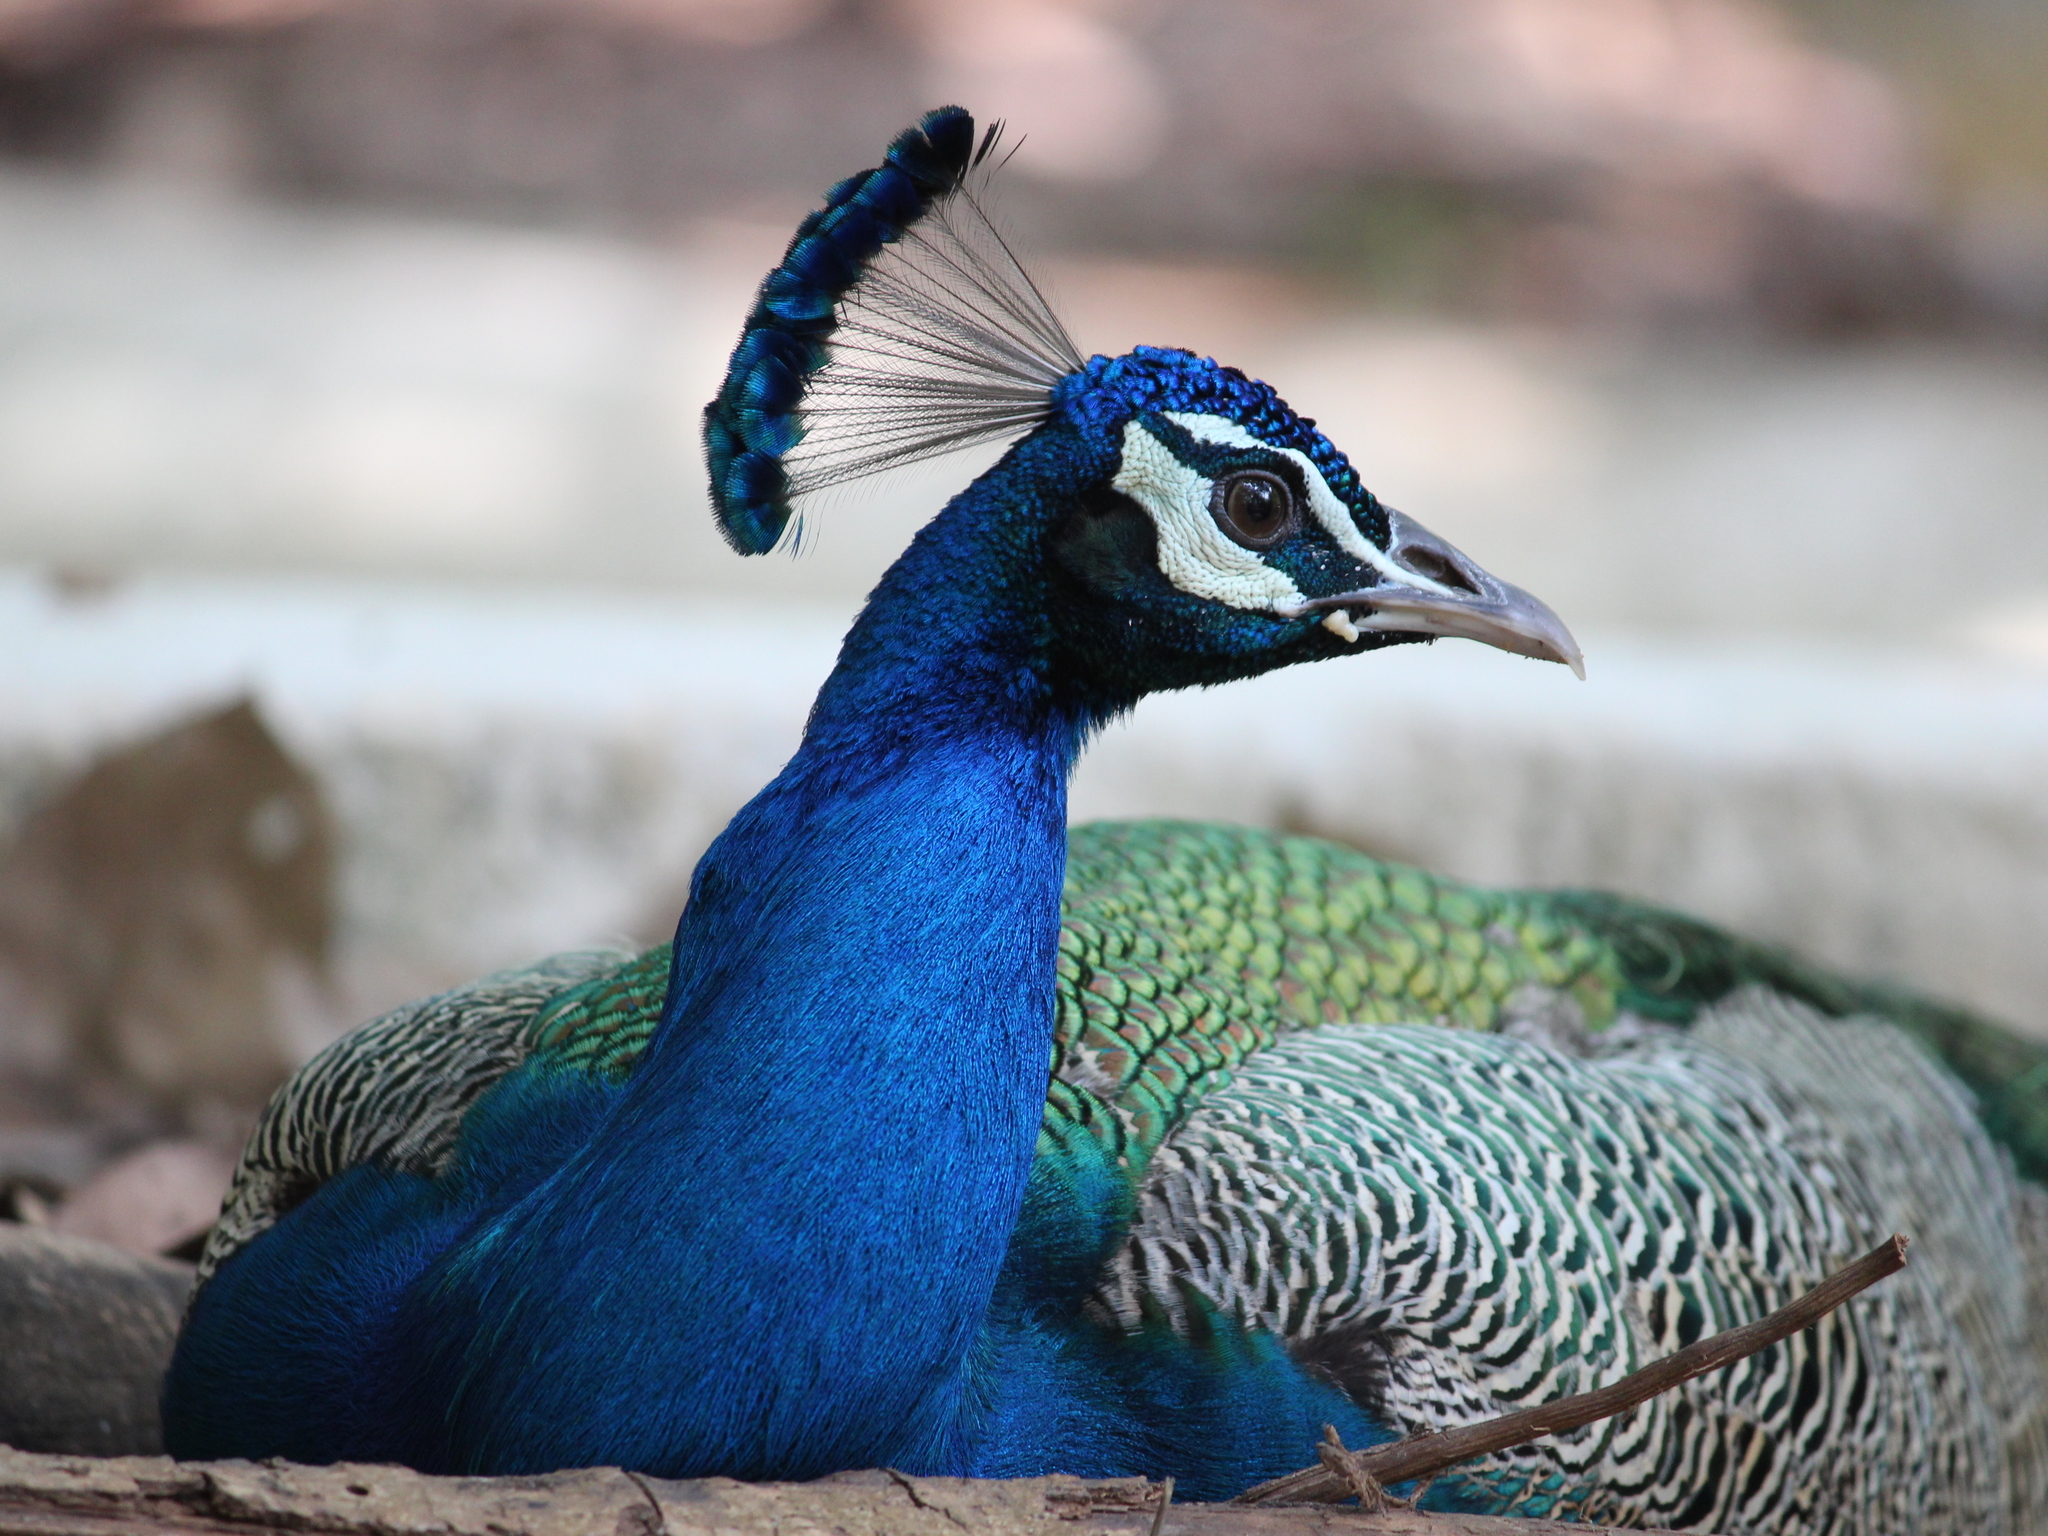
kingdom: Animalia
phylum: Chordata
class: Aves
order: Galliformes
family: Phasianidae
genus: Pavo
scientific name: Pavo cristatus
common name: Indian peafowl
